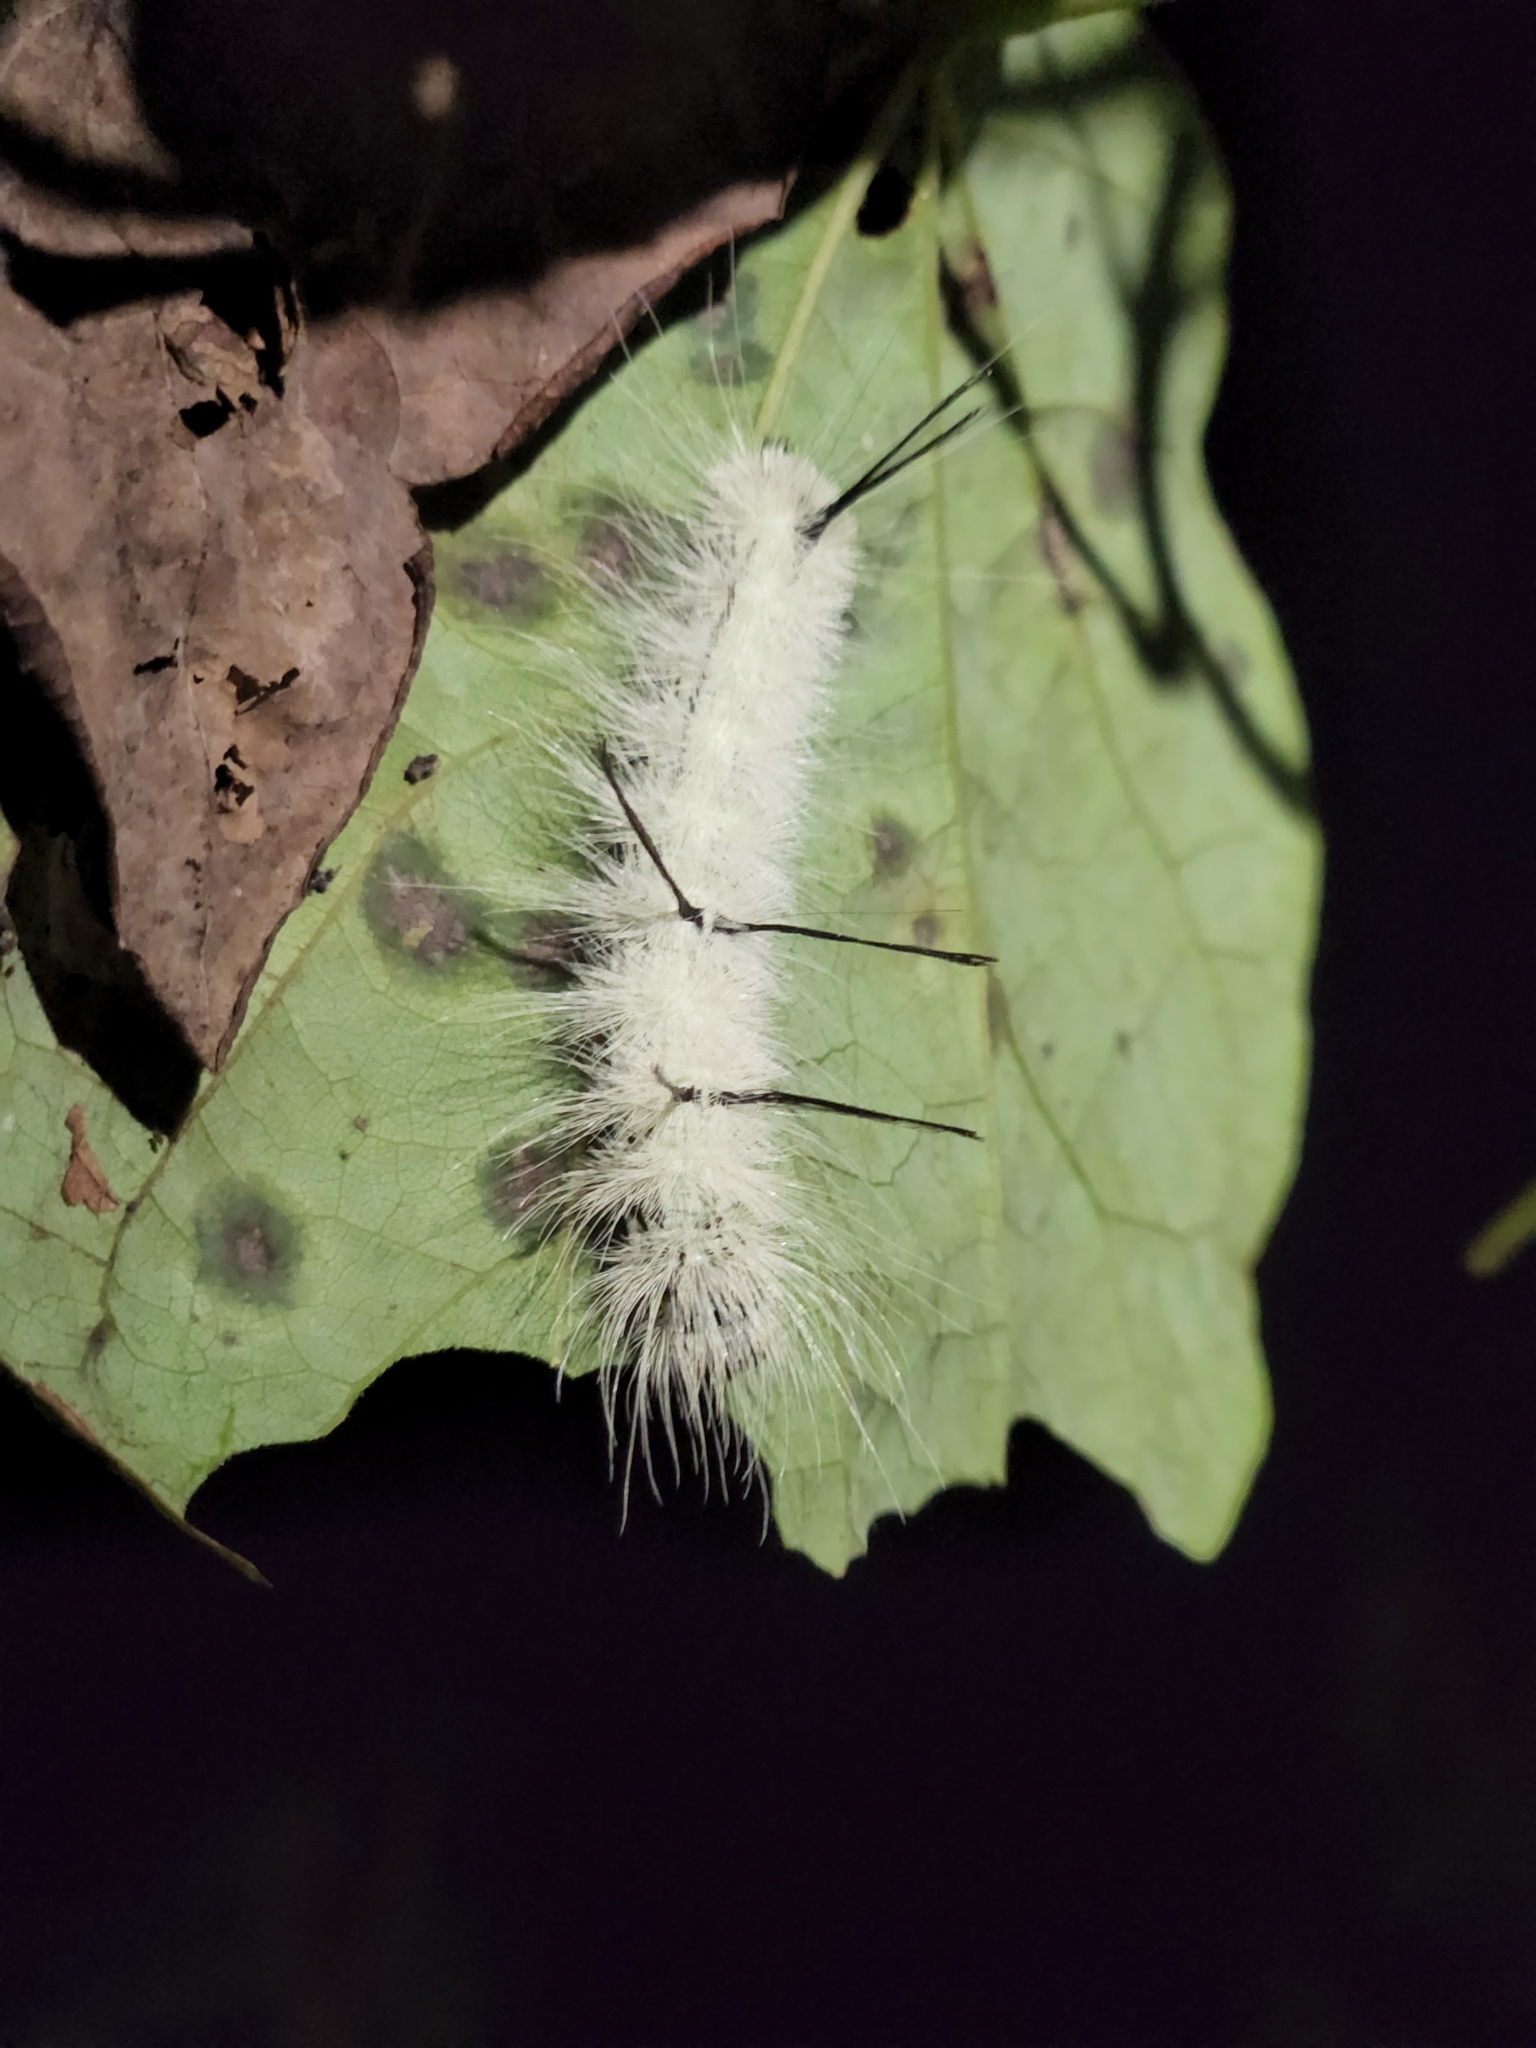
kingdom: Animalia
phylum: Arthropoda
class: Insecta
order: Lepidoptera
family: Noctuidae
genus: Acronicta
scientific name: Acronicta americana
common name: American dagger
